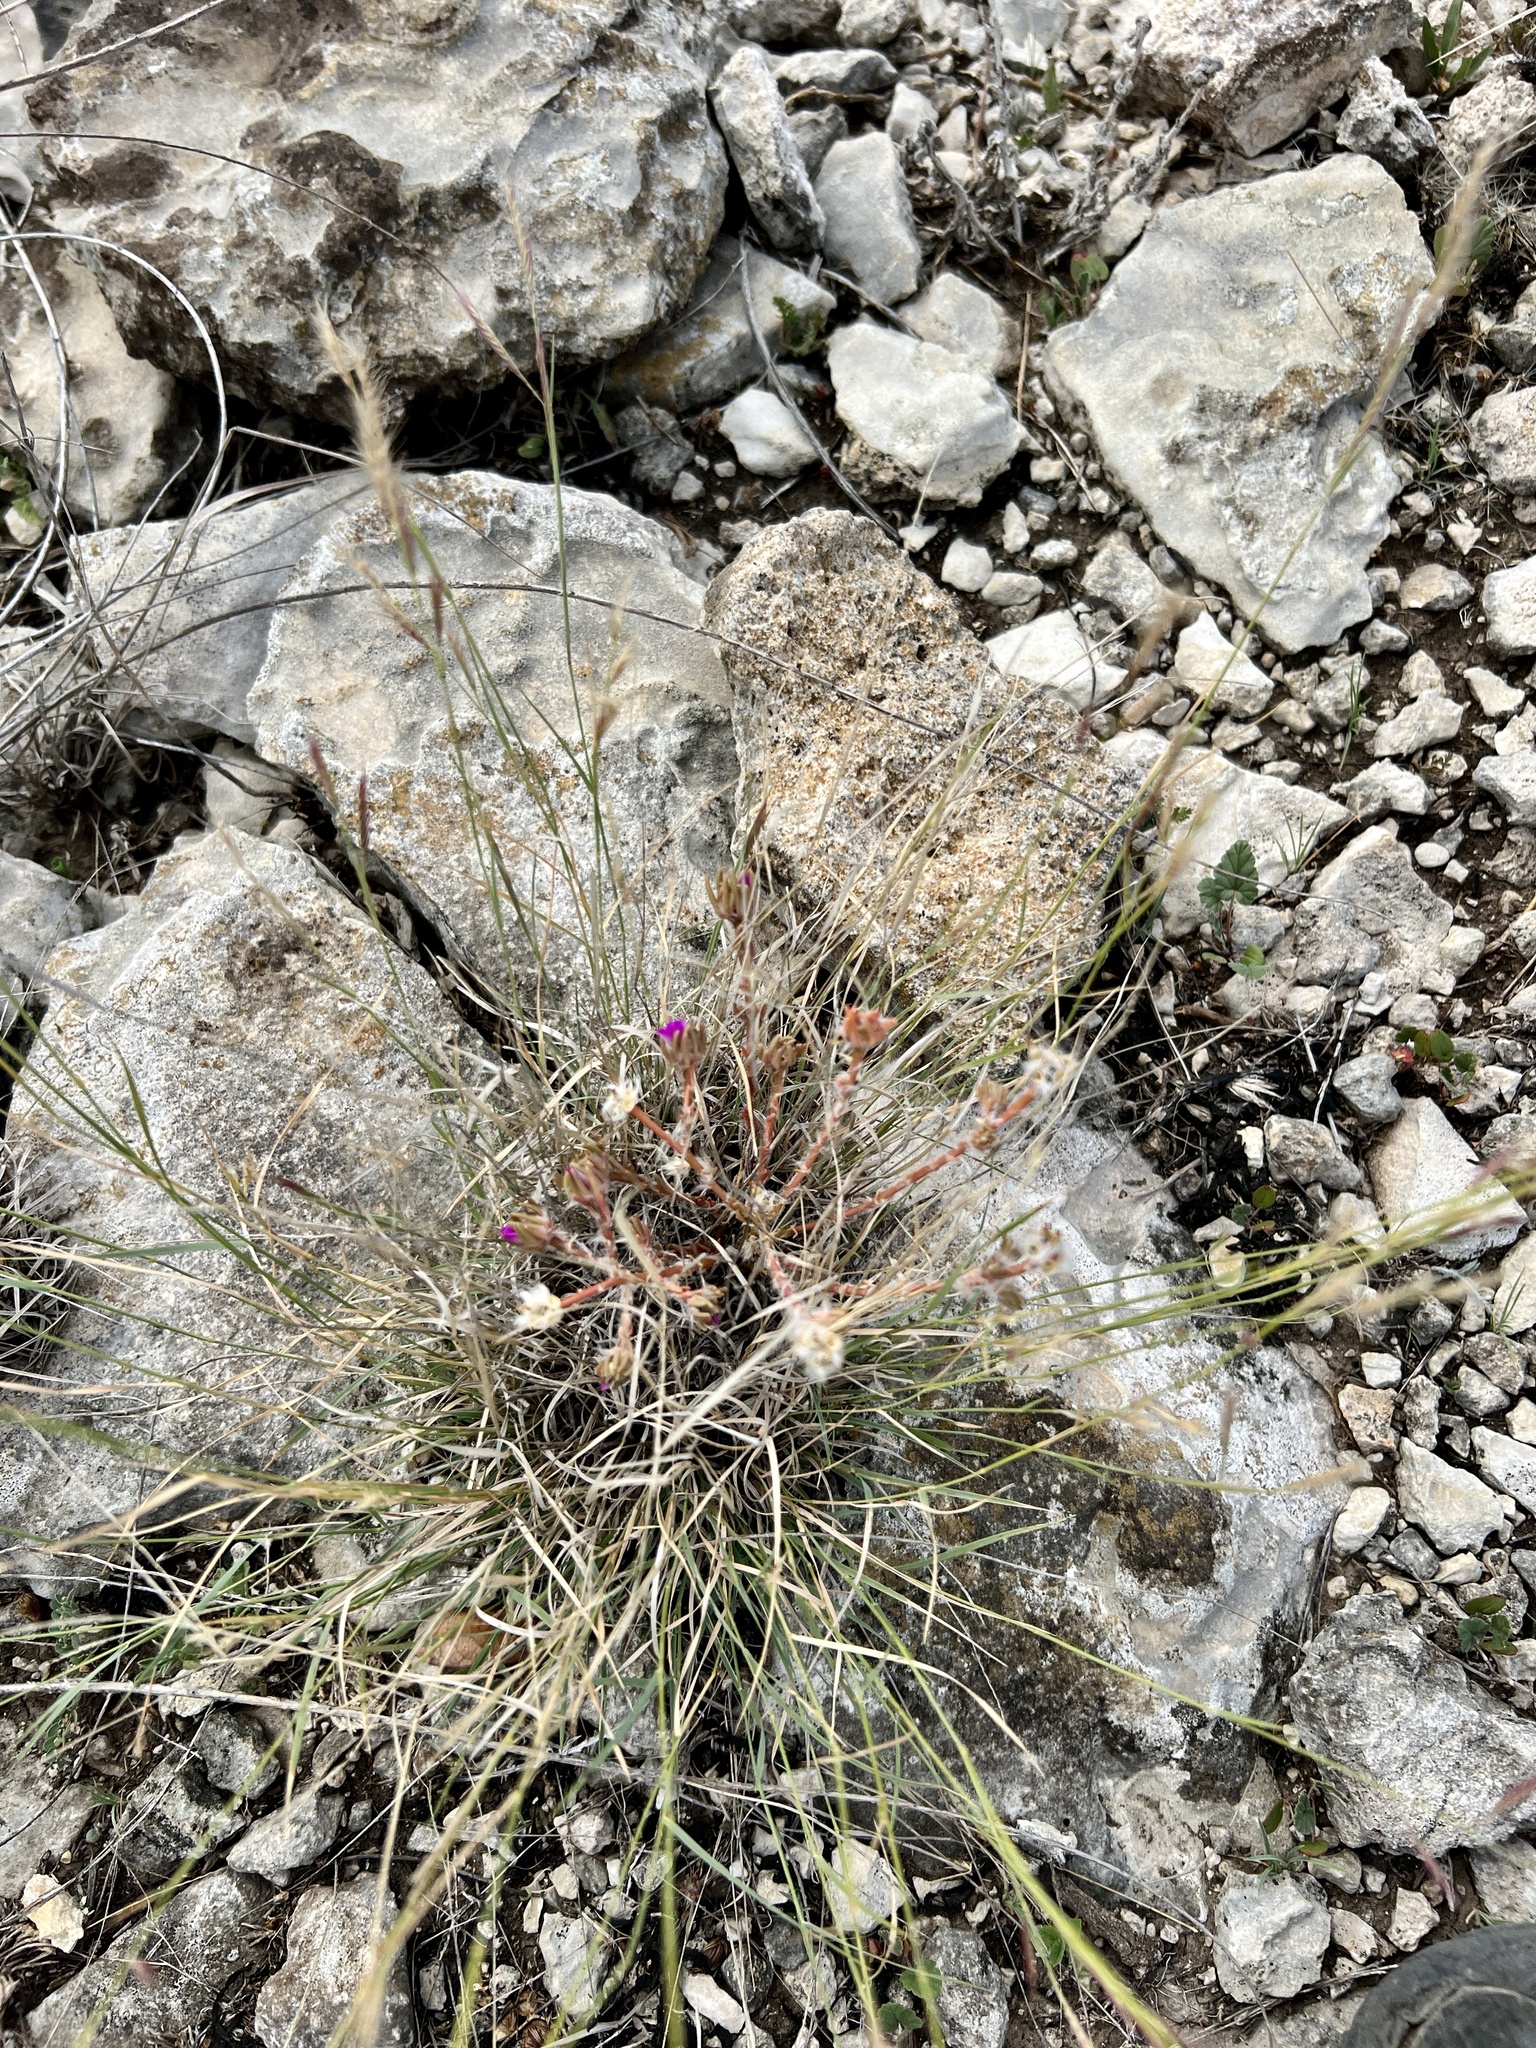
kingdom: Plantae
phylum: Tracheophyta
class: Magnoliopsida
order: Caryophyllales
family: Portulacaceae
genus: Portulaca
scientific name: Portulaca pilosa
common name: Kiss me quick
